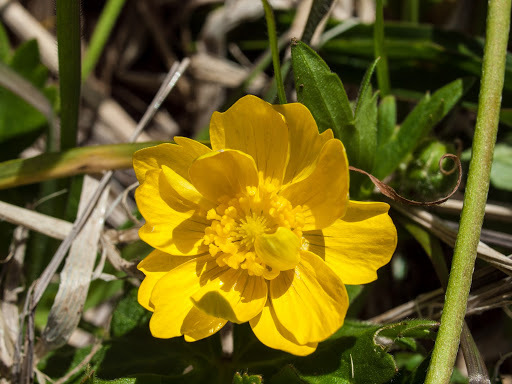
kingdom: Plantae
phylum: Tracheophyta
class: Magnoliopsida
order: Ranunculales
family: Ranunculaceae
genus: Ranunculus
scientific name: Ranunculus californicus
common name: California buttercup
